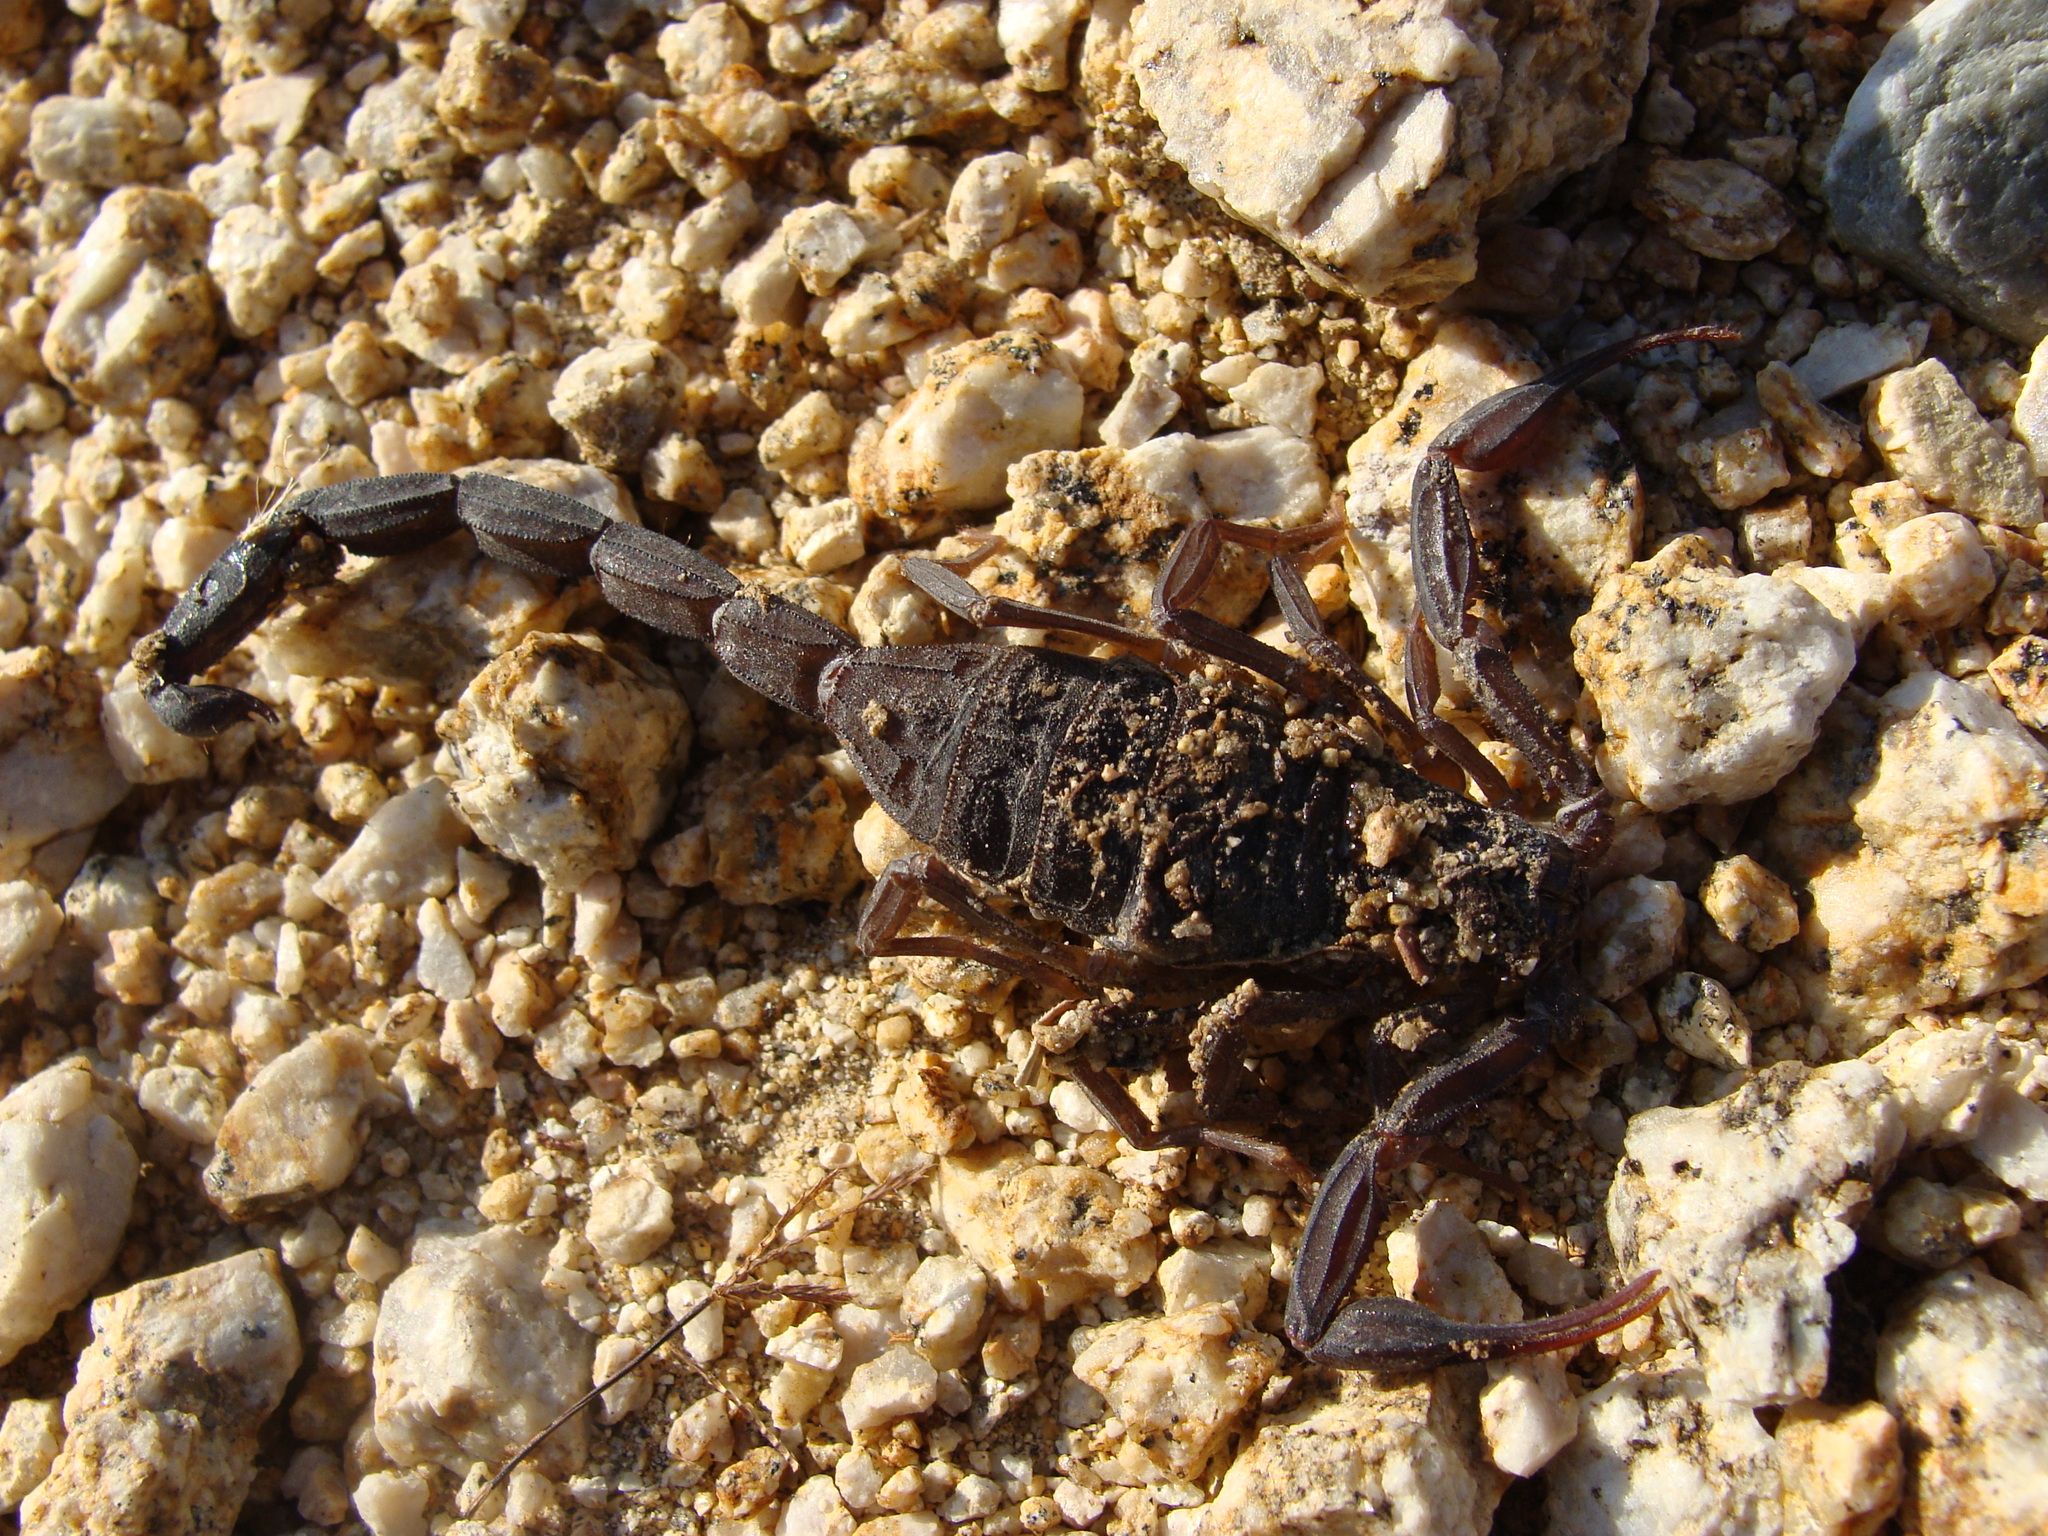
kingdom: Animalia
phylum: Arthropoda
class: Arachnida
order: Scorpiones
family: Buthidae
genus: Centruroides
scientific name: Centruroides nigrescens
